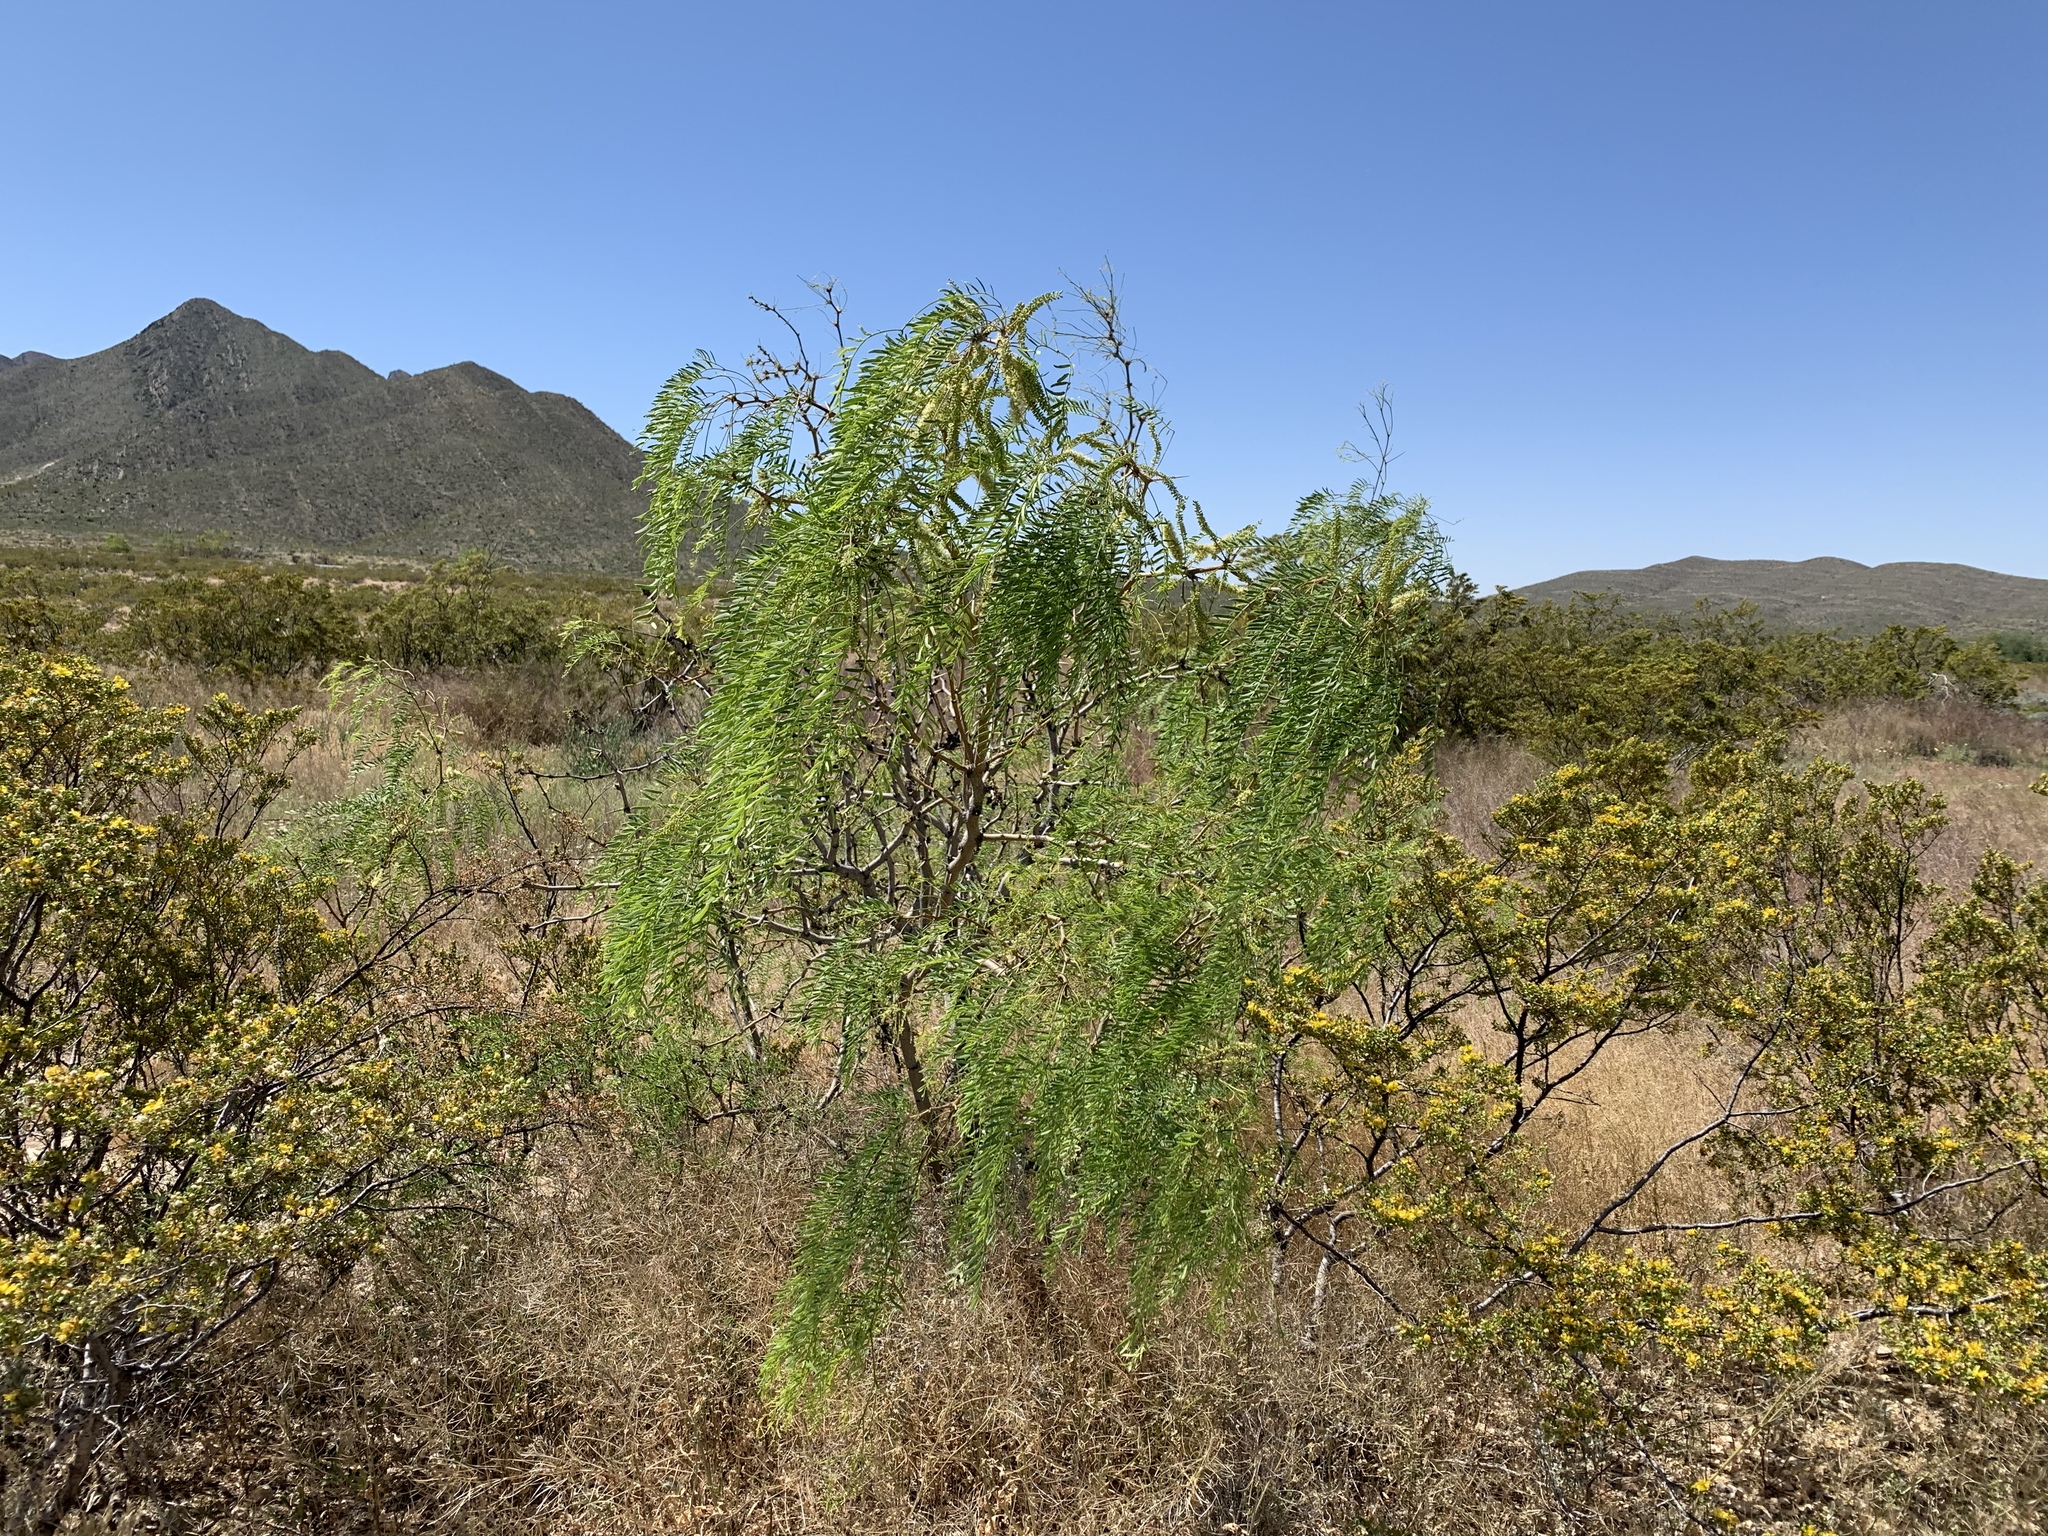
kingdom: Plantae
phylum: Tracheophyta
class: Magnoliopsida
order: Fabales
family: Fabaceae
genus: Prosopis
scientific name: Prosopis glandulosa
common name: Honey mesquite
